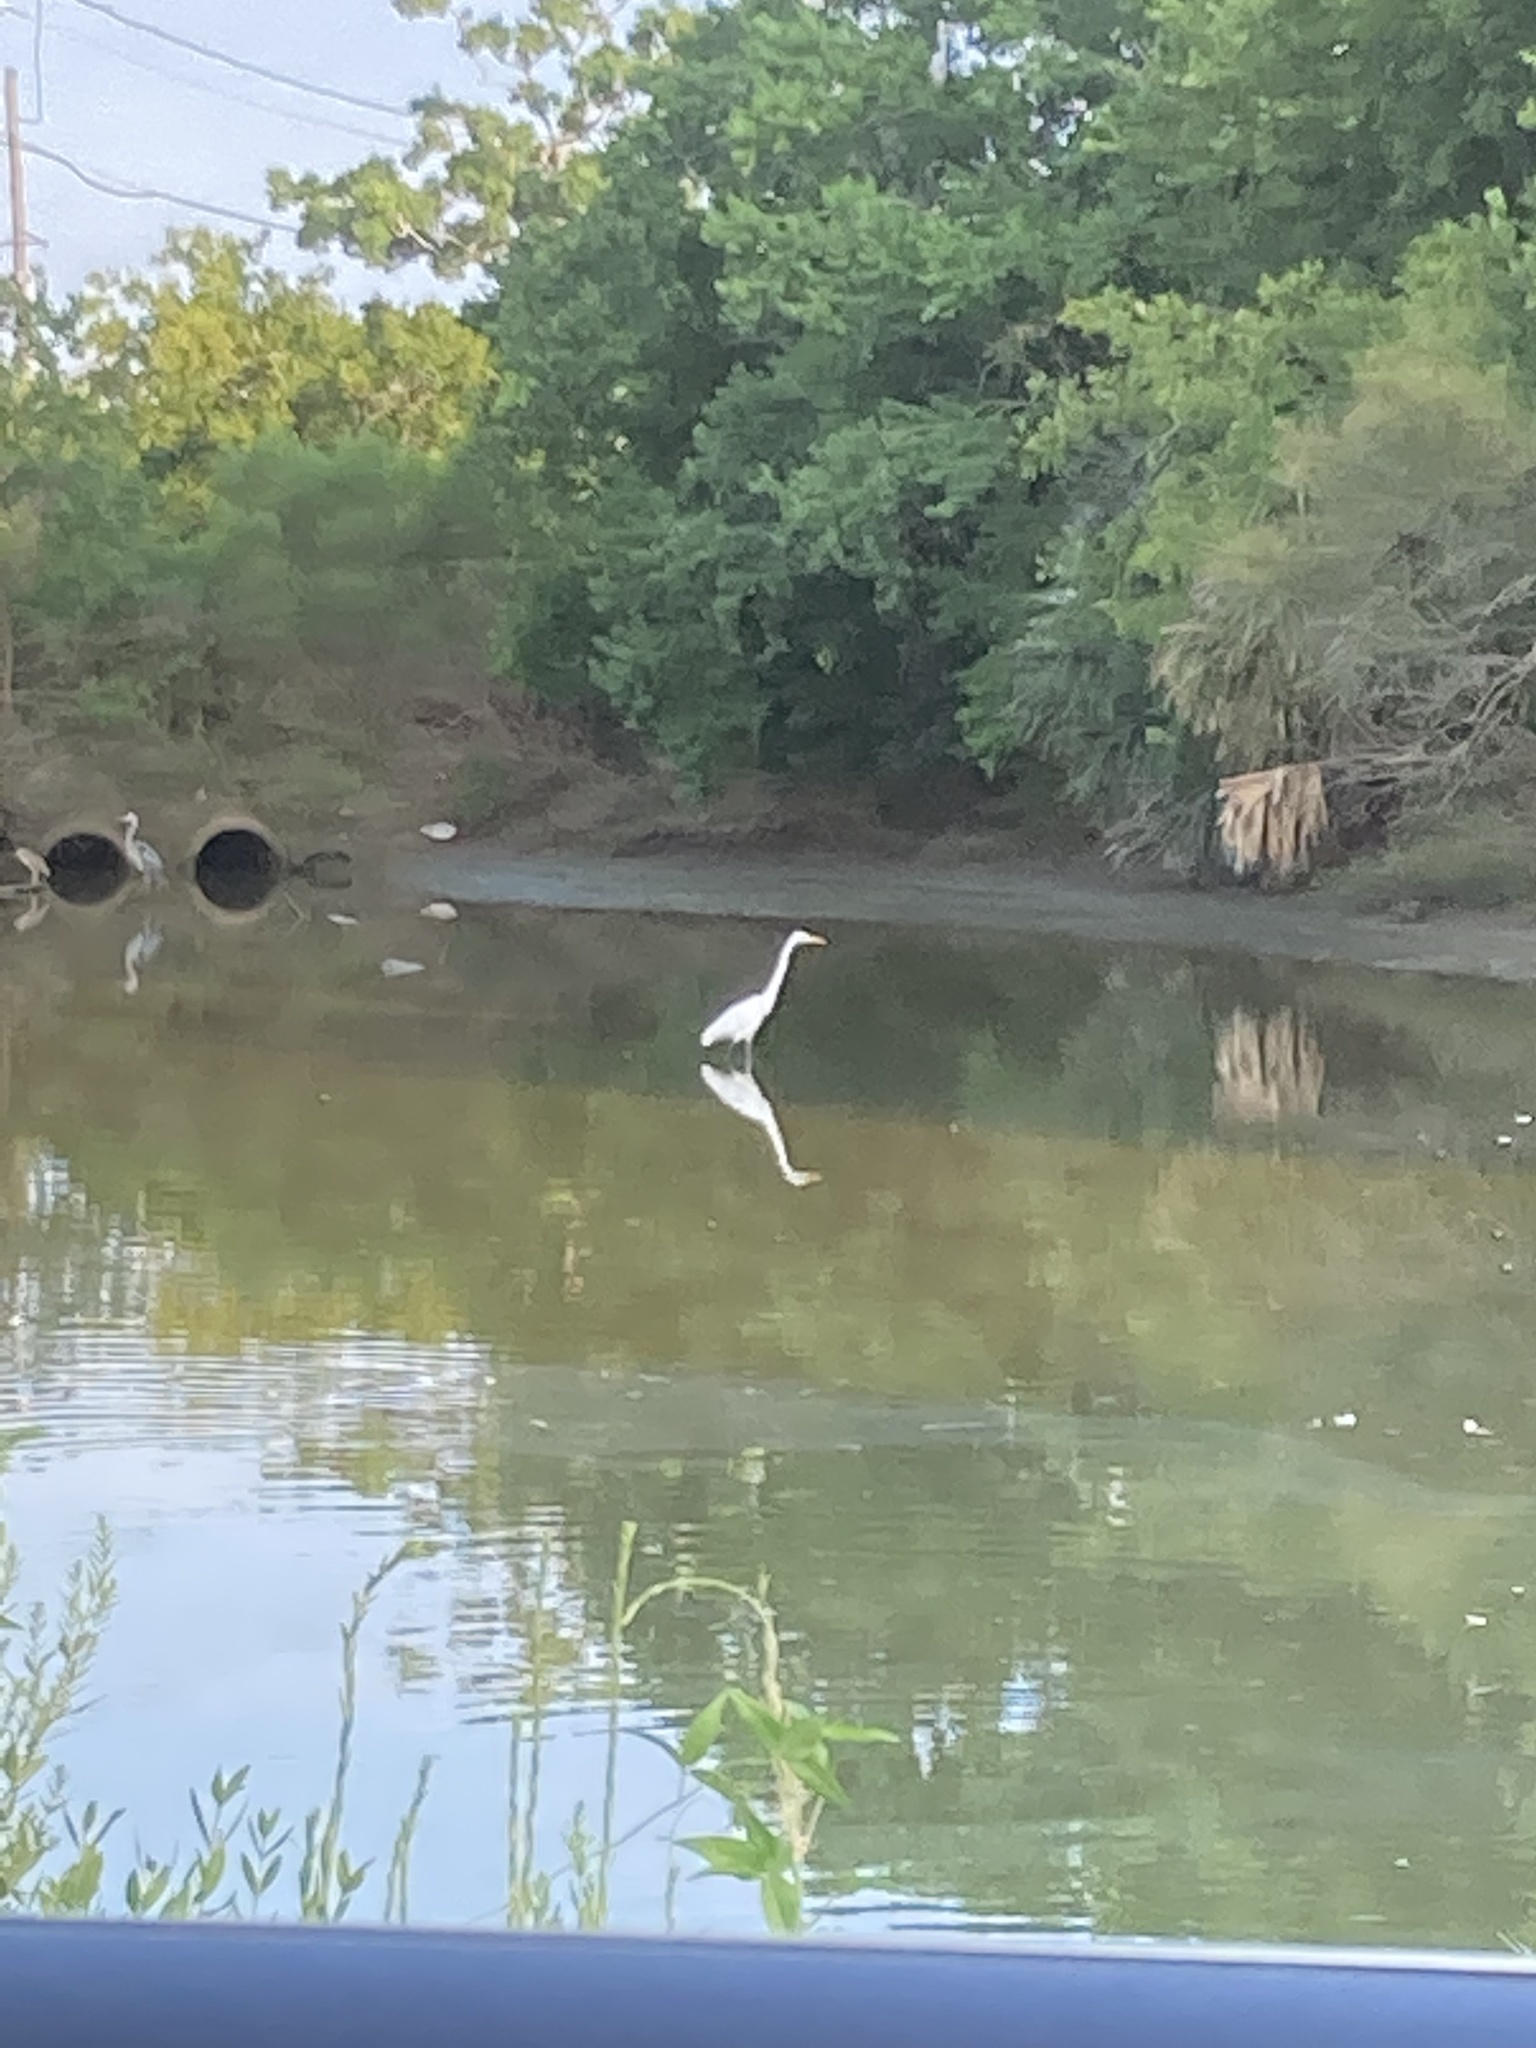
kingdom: Animalia
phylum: Chordata
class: Aves
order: Pelecaniformes
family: Ardeidae
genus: Ardea
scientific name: Ardea alba
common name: Great egret
